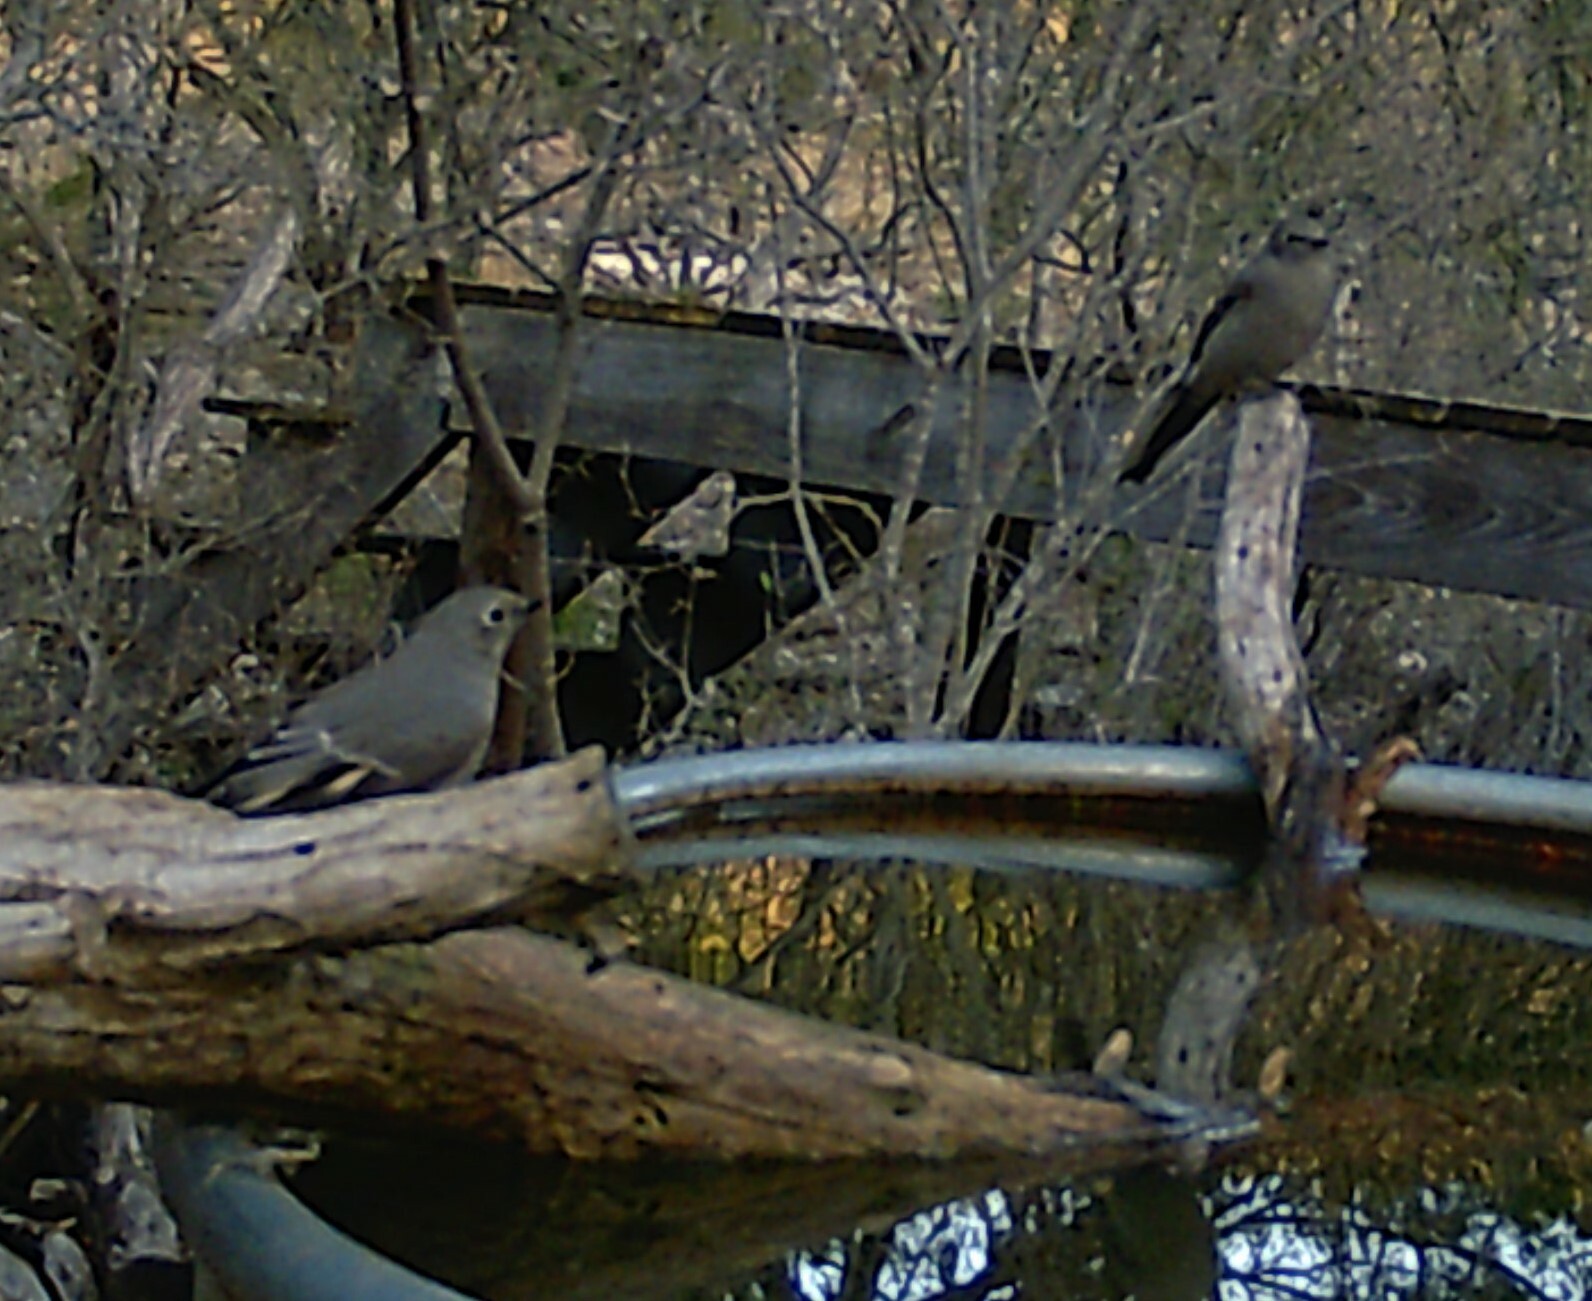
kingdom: Animalia
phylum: Chordata
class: Aves
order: Passeriformes
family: Turdidae
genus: Myadestes
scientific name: Myadestes townsendi
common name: Townsend's solitaire
